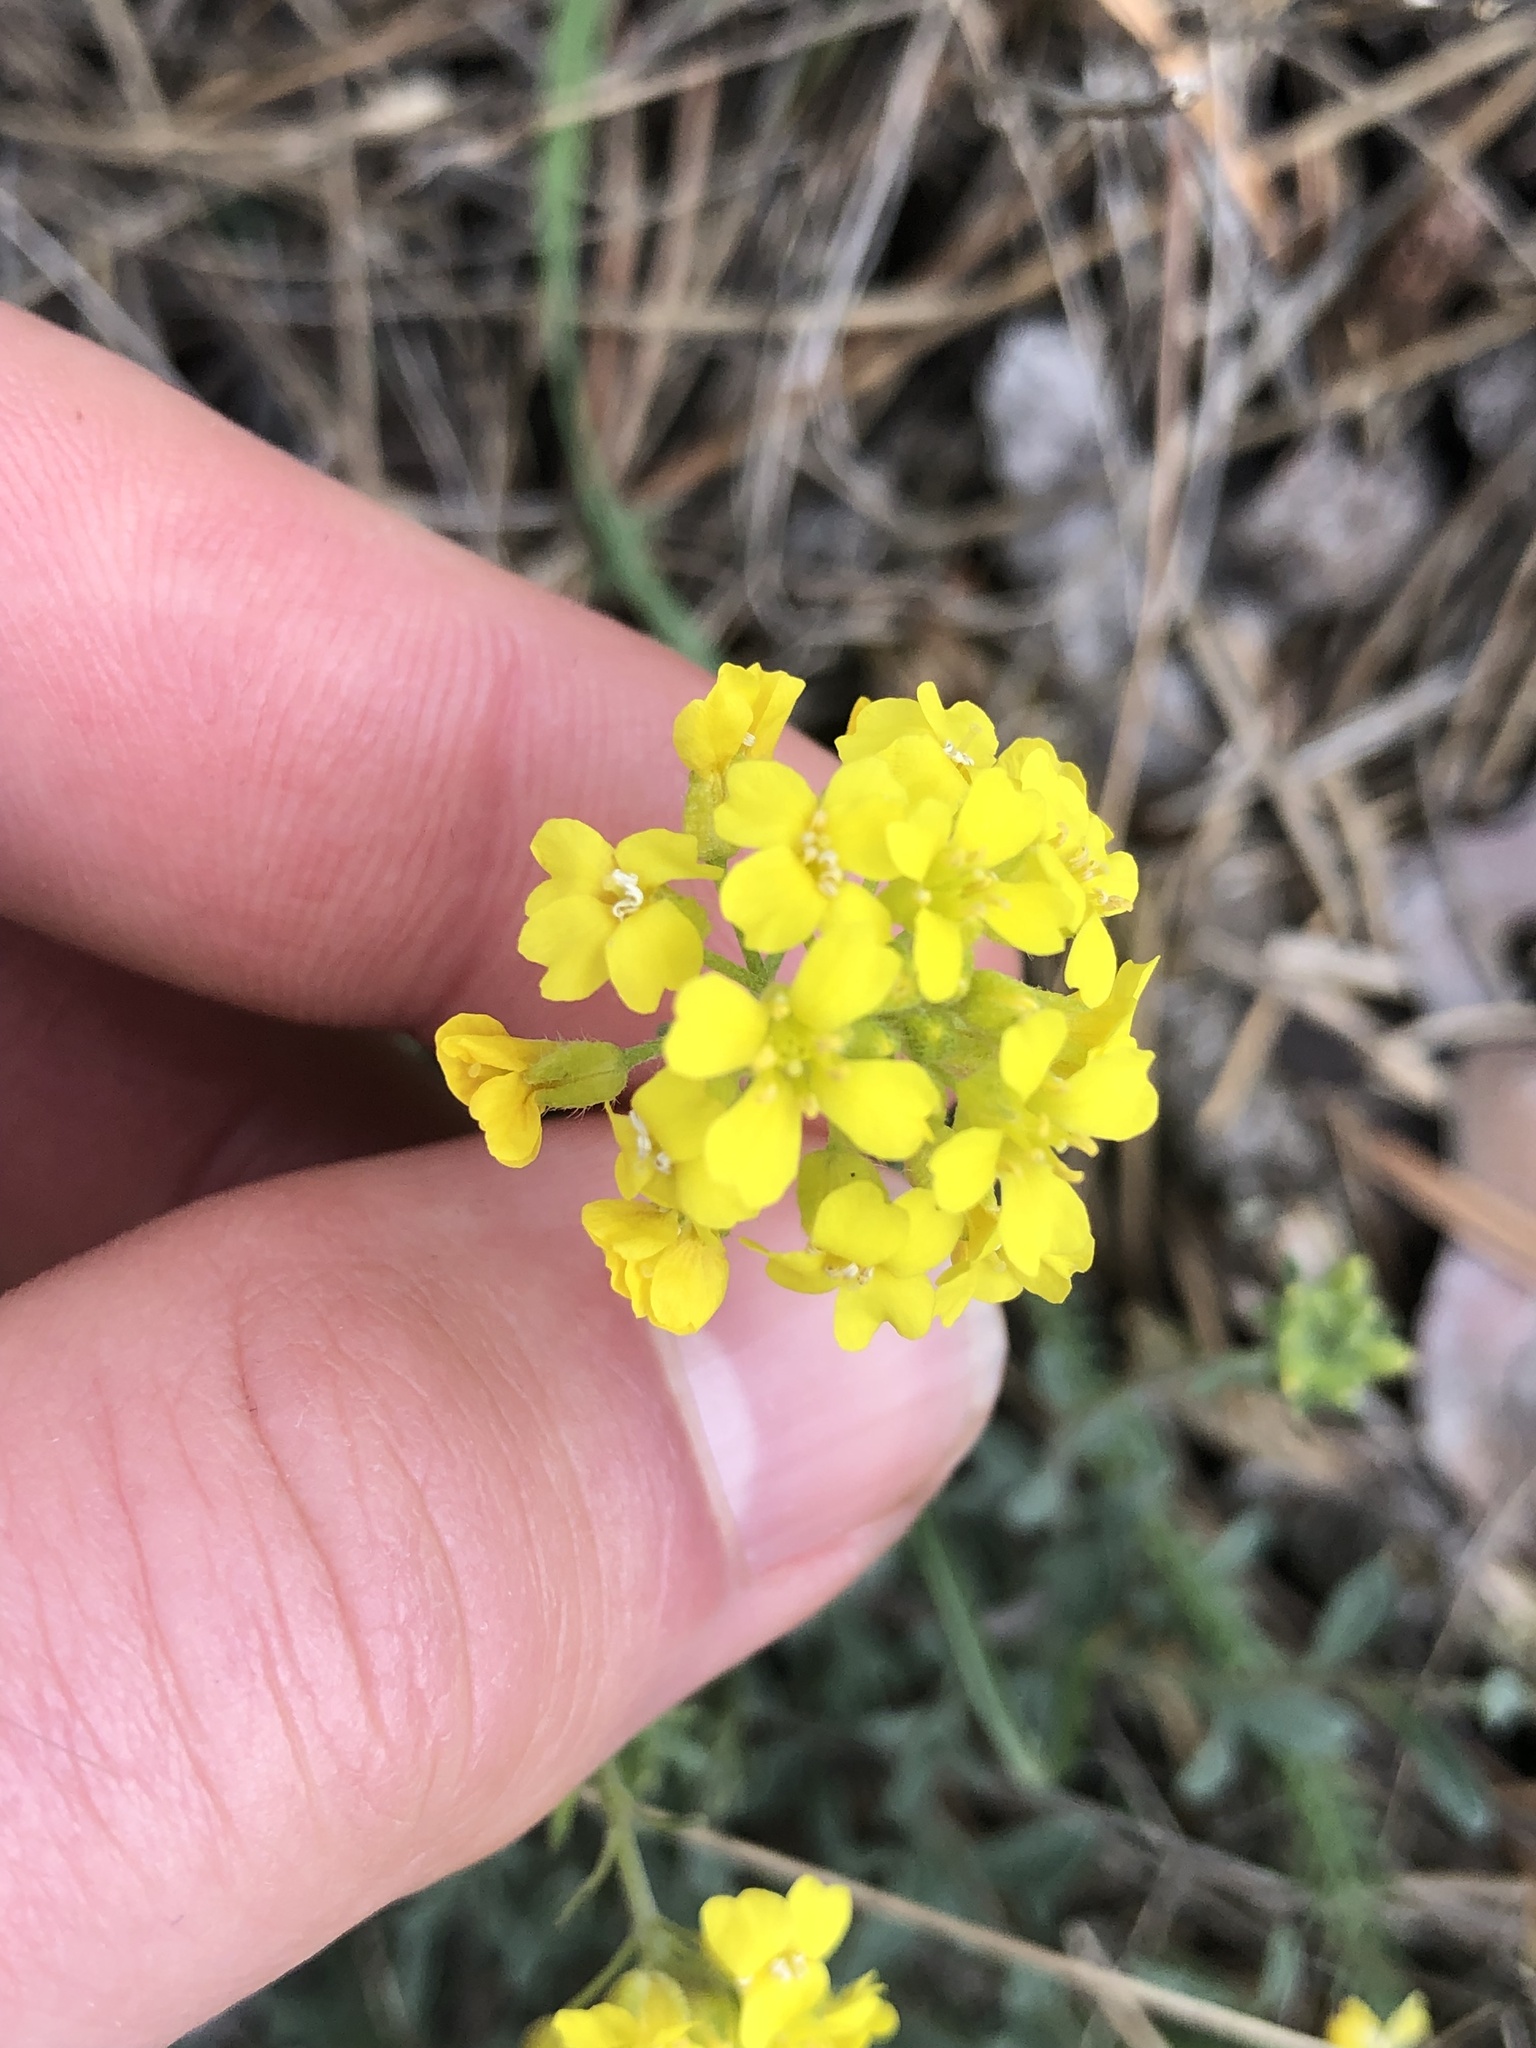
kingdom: Plantae
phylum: Tracheophyta
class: Magnoliopsida
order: Brassicales
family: Brassicaceae
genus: Alyssum
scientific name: Alyssum gmelinii
